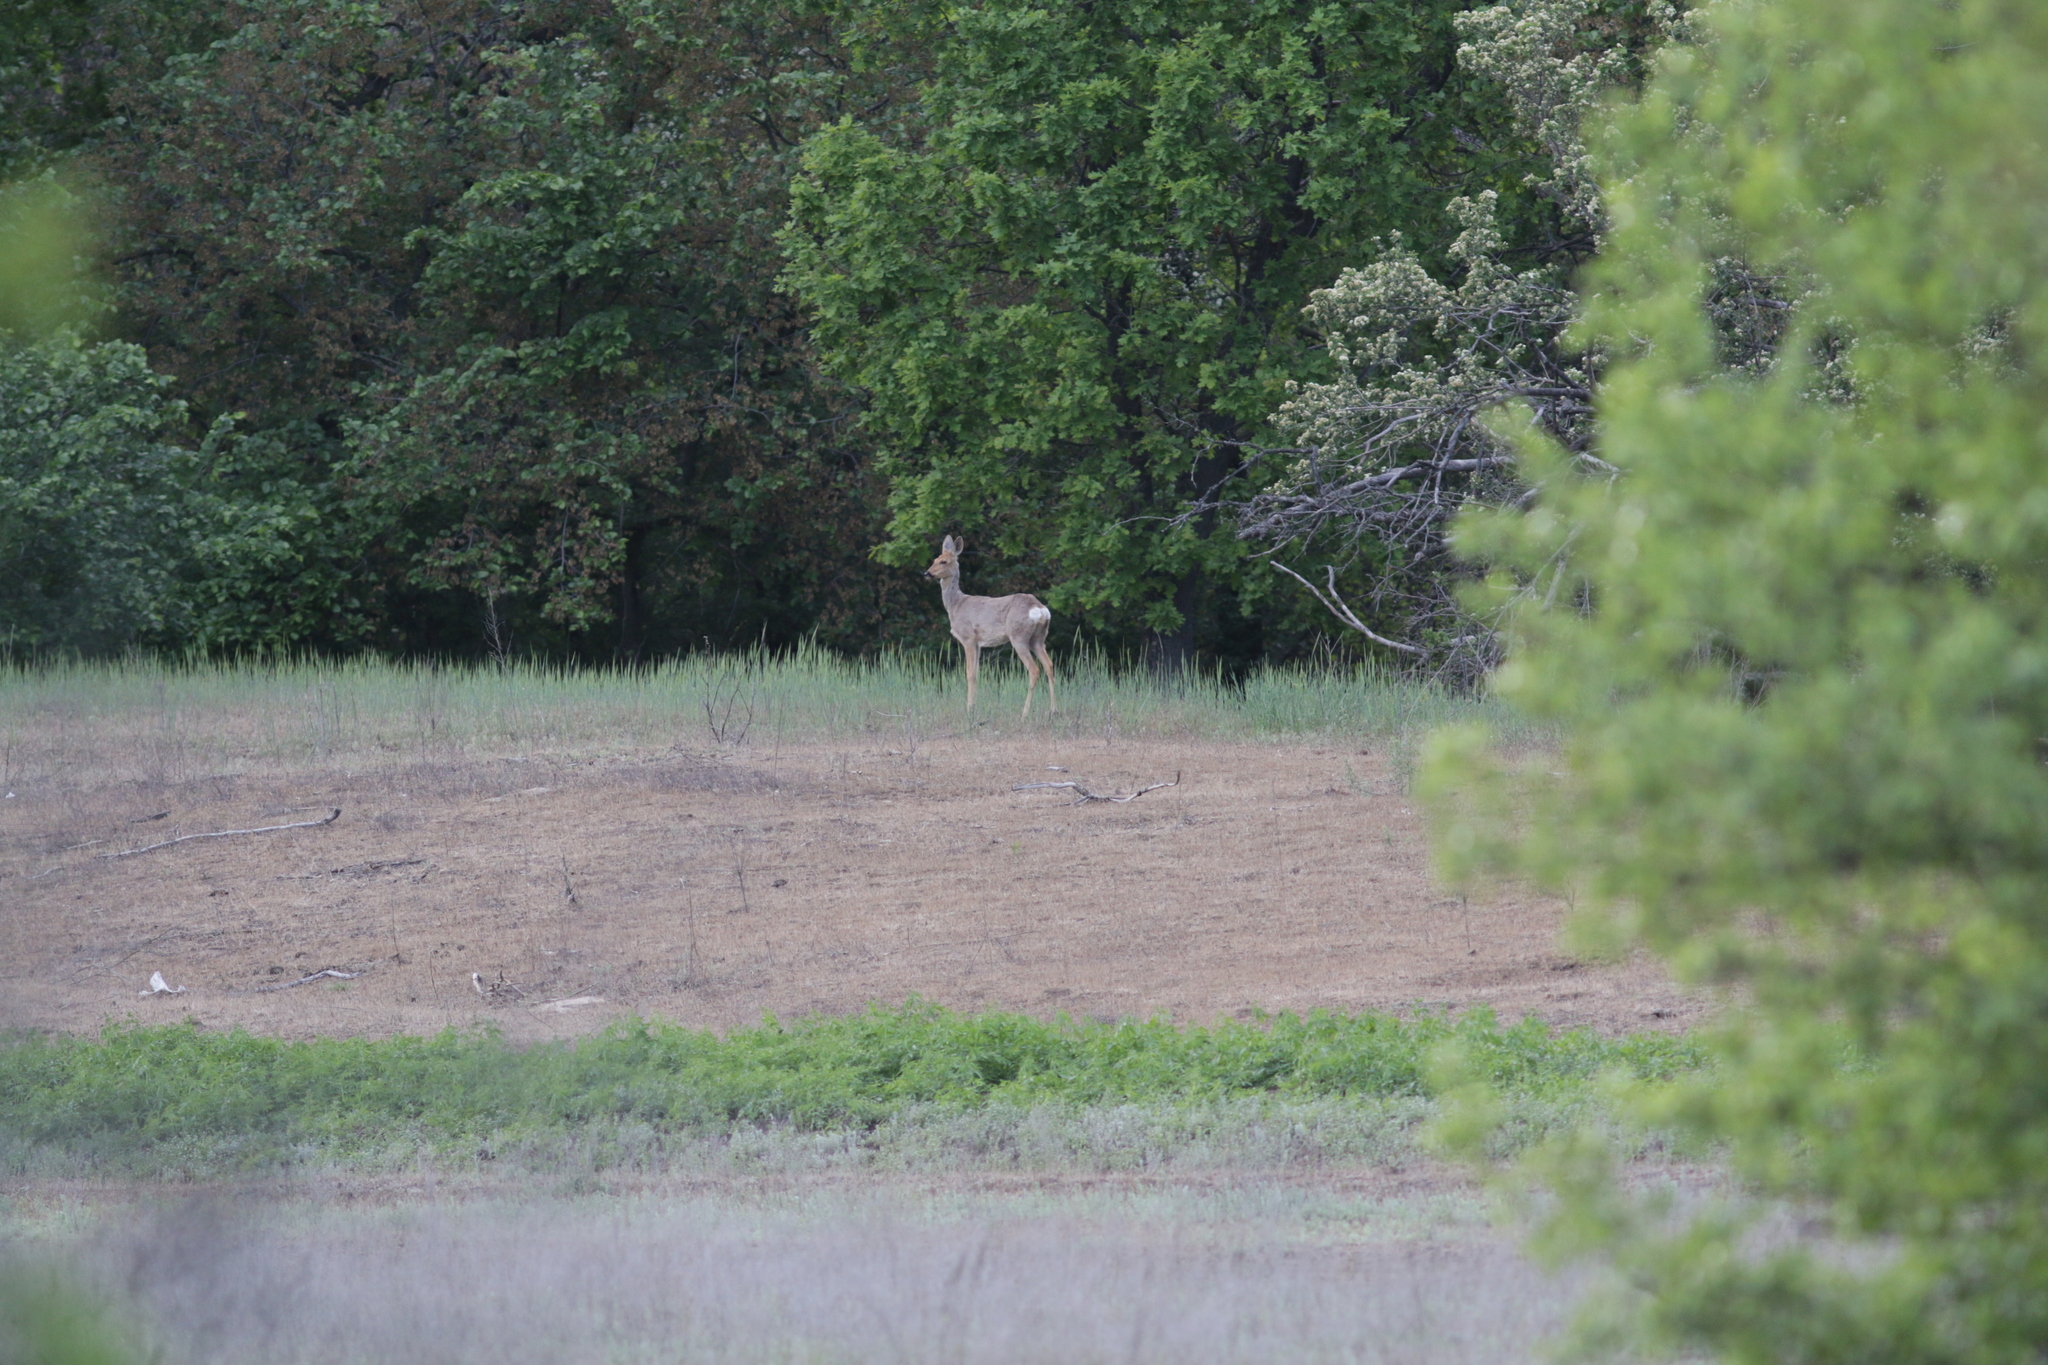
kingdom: Animalia
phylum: Chordata
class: Mammalia
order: Artiodactyla
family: Cervidae
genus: Capreolus
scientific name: Capreolus pygargus
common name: Siberian roe
